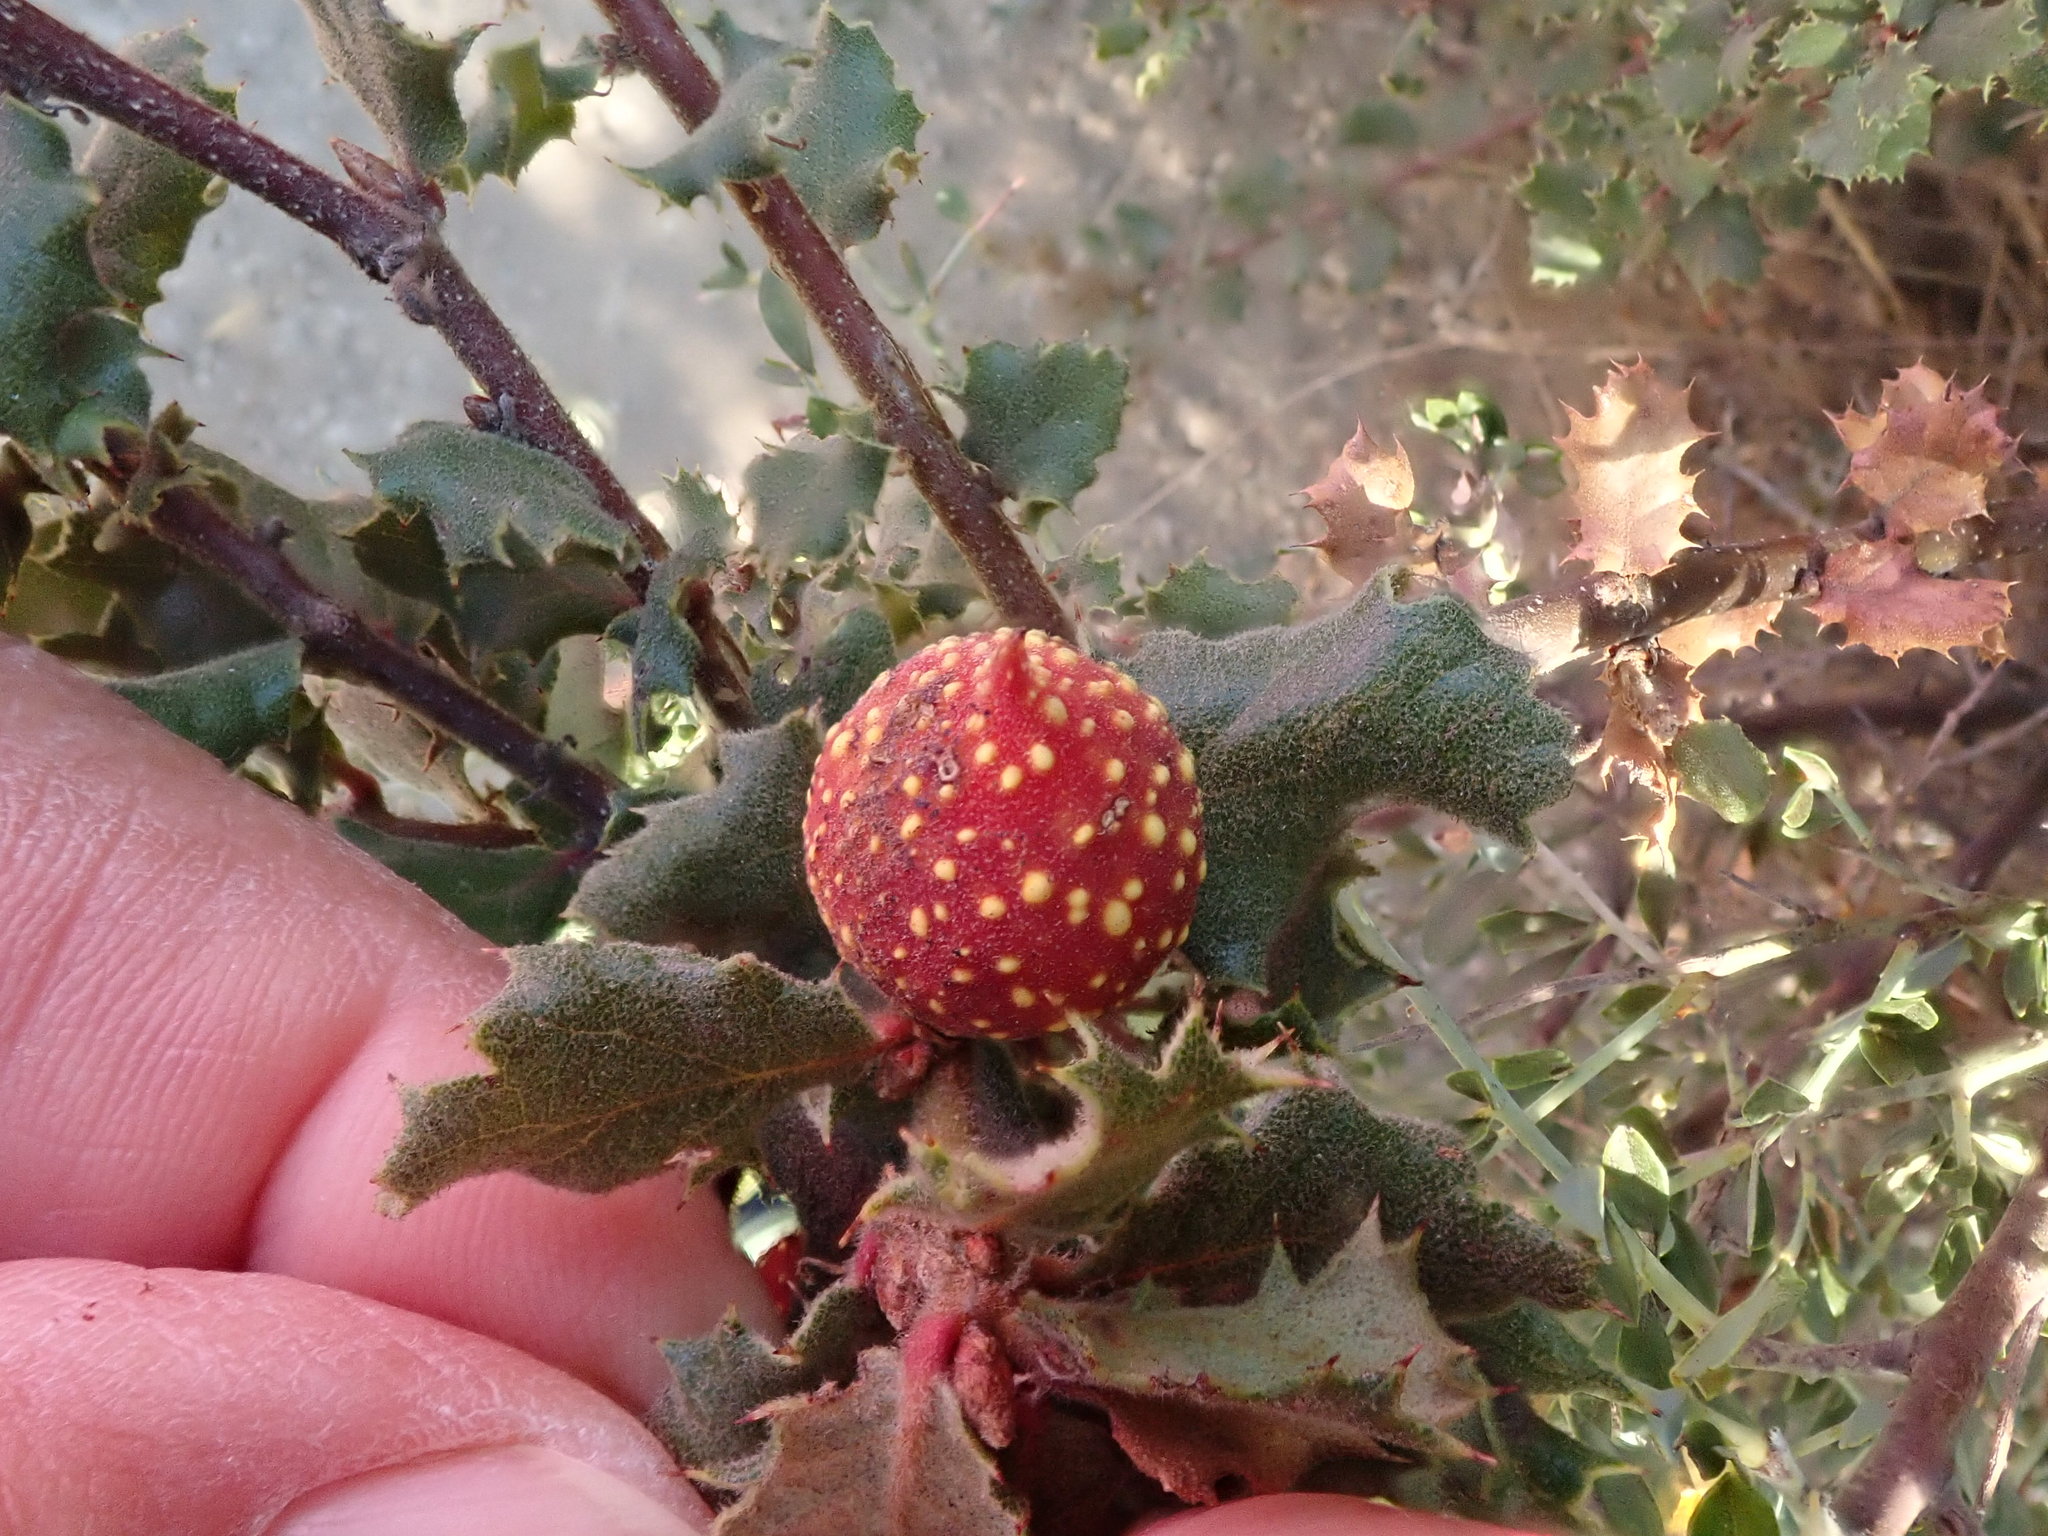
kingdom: Animalia
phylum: Arthropoda
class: Insecta
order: Hymenoptera
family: Cynipidae
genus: Burnettweldia
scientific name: Burnettweldia
